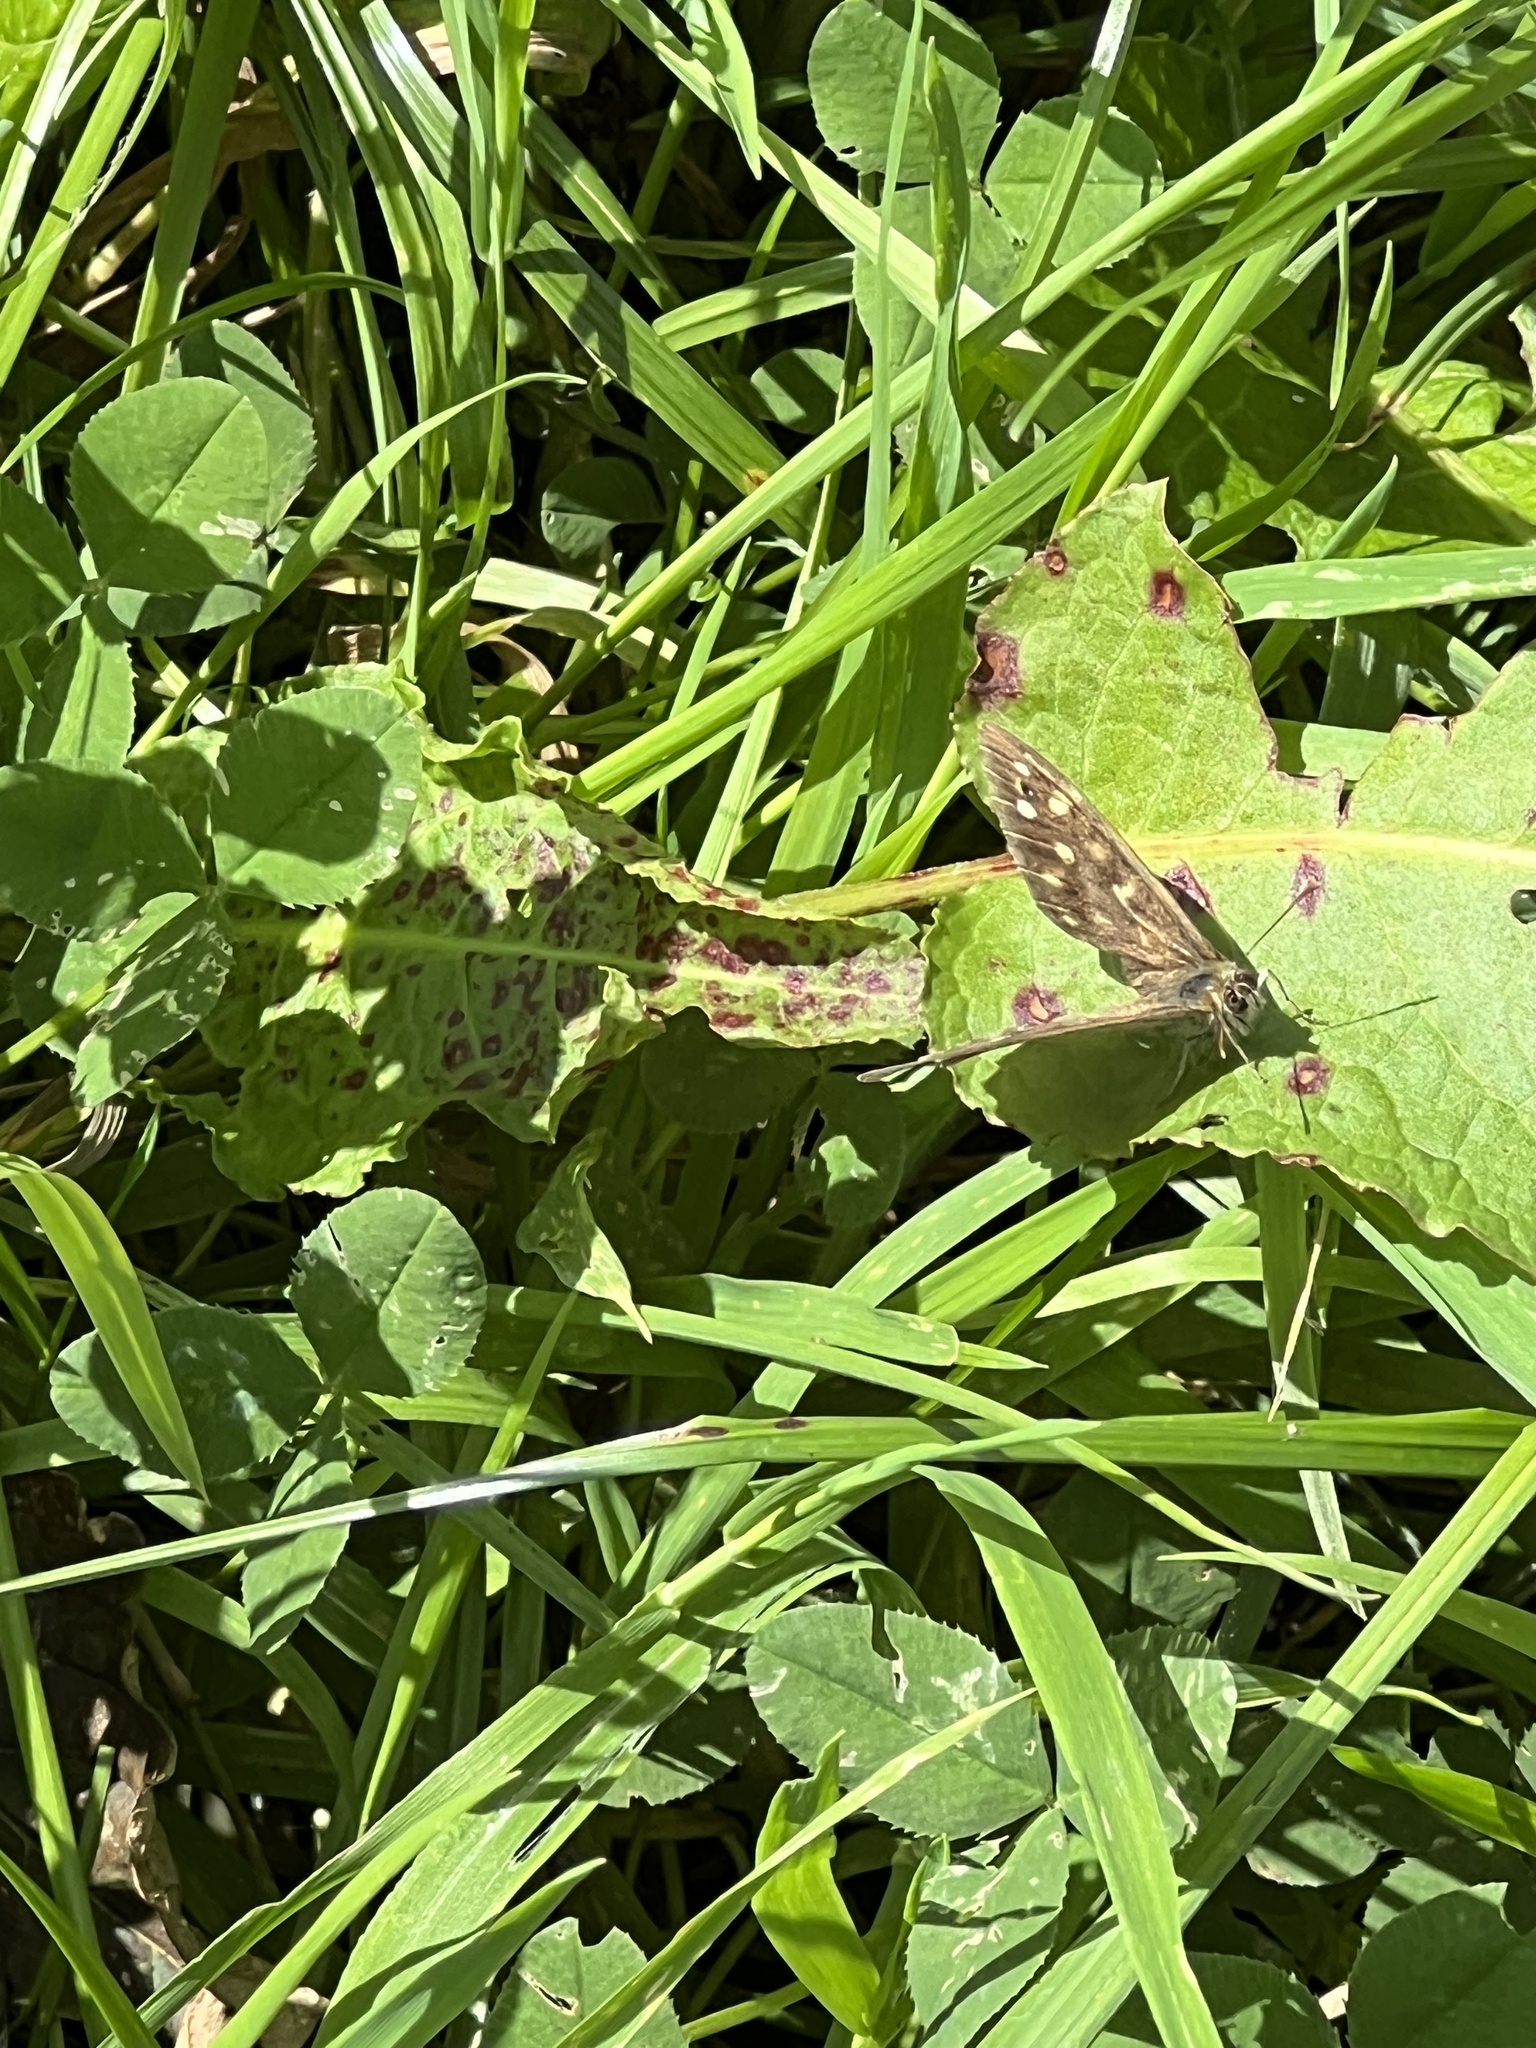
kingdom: Animalia
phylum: Arthropoda
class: Insecta
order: Lepidoptera
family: Nymphalidae
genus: Pararge
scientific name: Pararge aegeria
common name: Speckled wood
